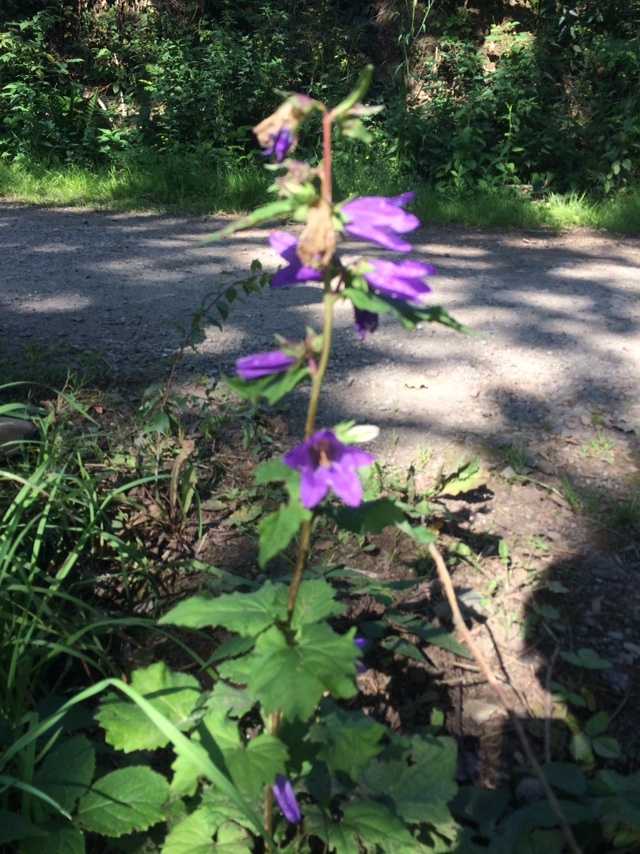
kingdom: Plantae
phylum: Tracheophyta
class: Magnoliopsida
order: Asterales
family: Campanulaceae
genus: Campanula
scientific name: Campanula trachelium
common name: Nettle-leaved bellflower
